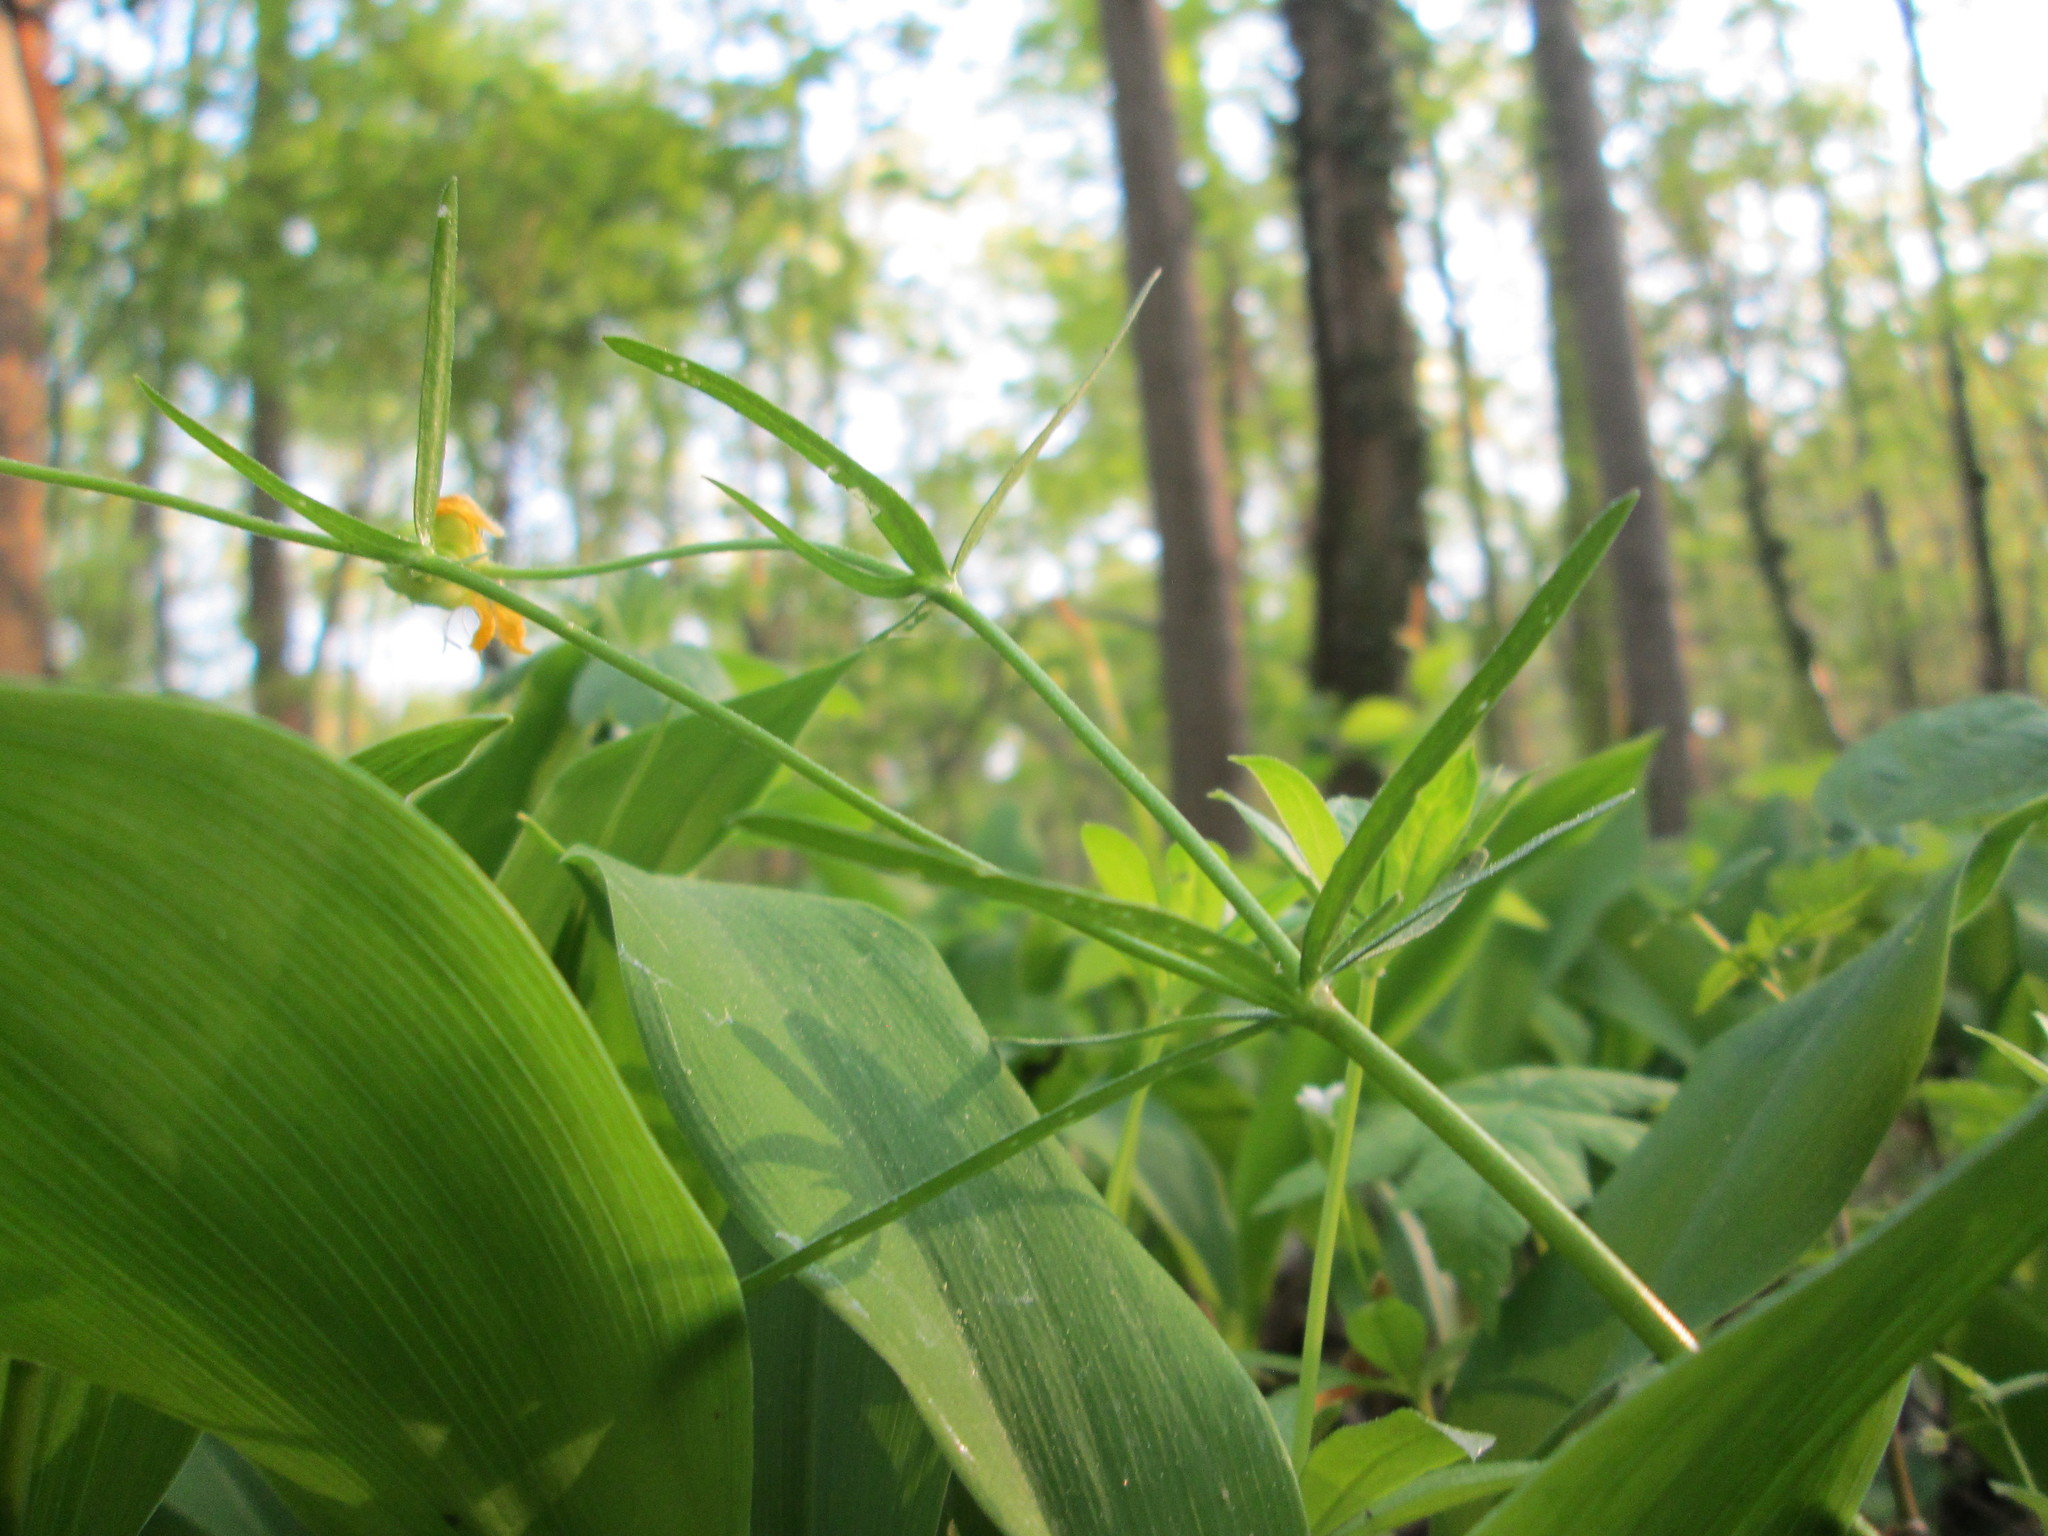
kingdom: Plantae
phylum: Tracheophyta
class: Magnoliopsida
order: Ranunculales
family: Ranunculaceae
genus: Ranunculus
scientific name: Ranunculus auricomus
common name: Goldilocks buttercup
